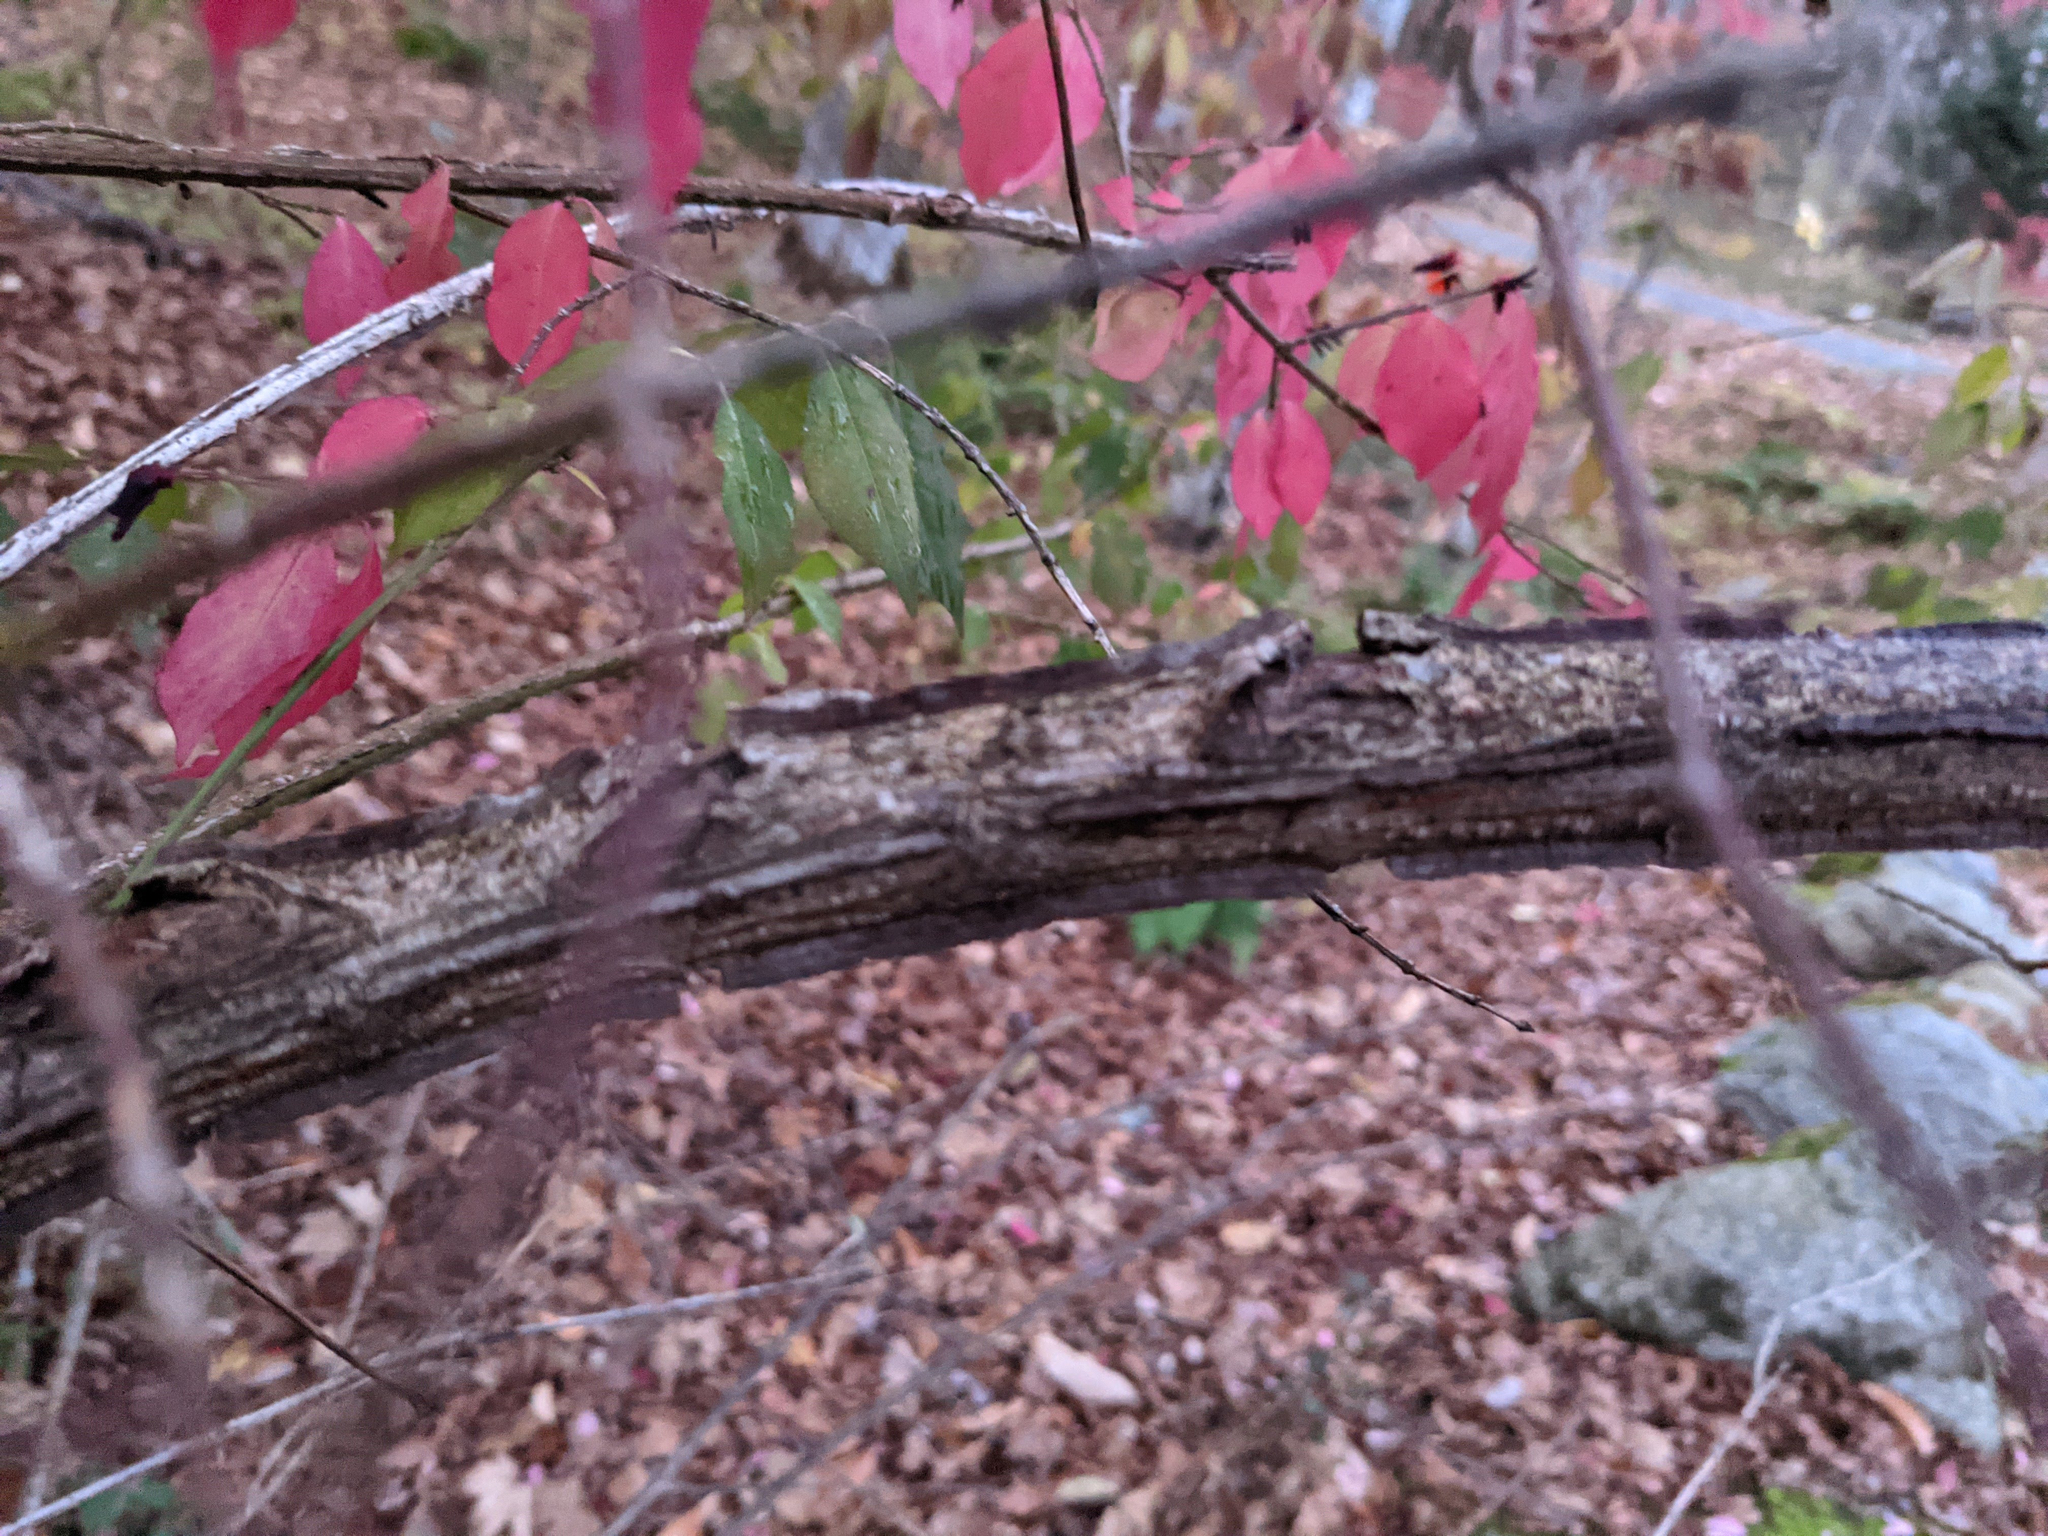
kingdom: Plantae
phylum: Tracheophyta
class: Magnoliopsida
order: Celastrales
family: Celastraceae
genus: Euonymus
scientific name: Euonymus alatus
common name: Winged euonymus
